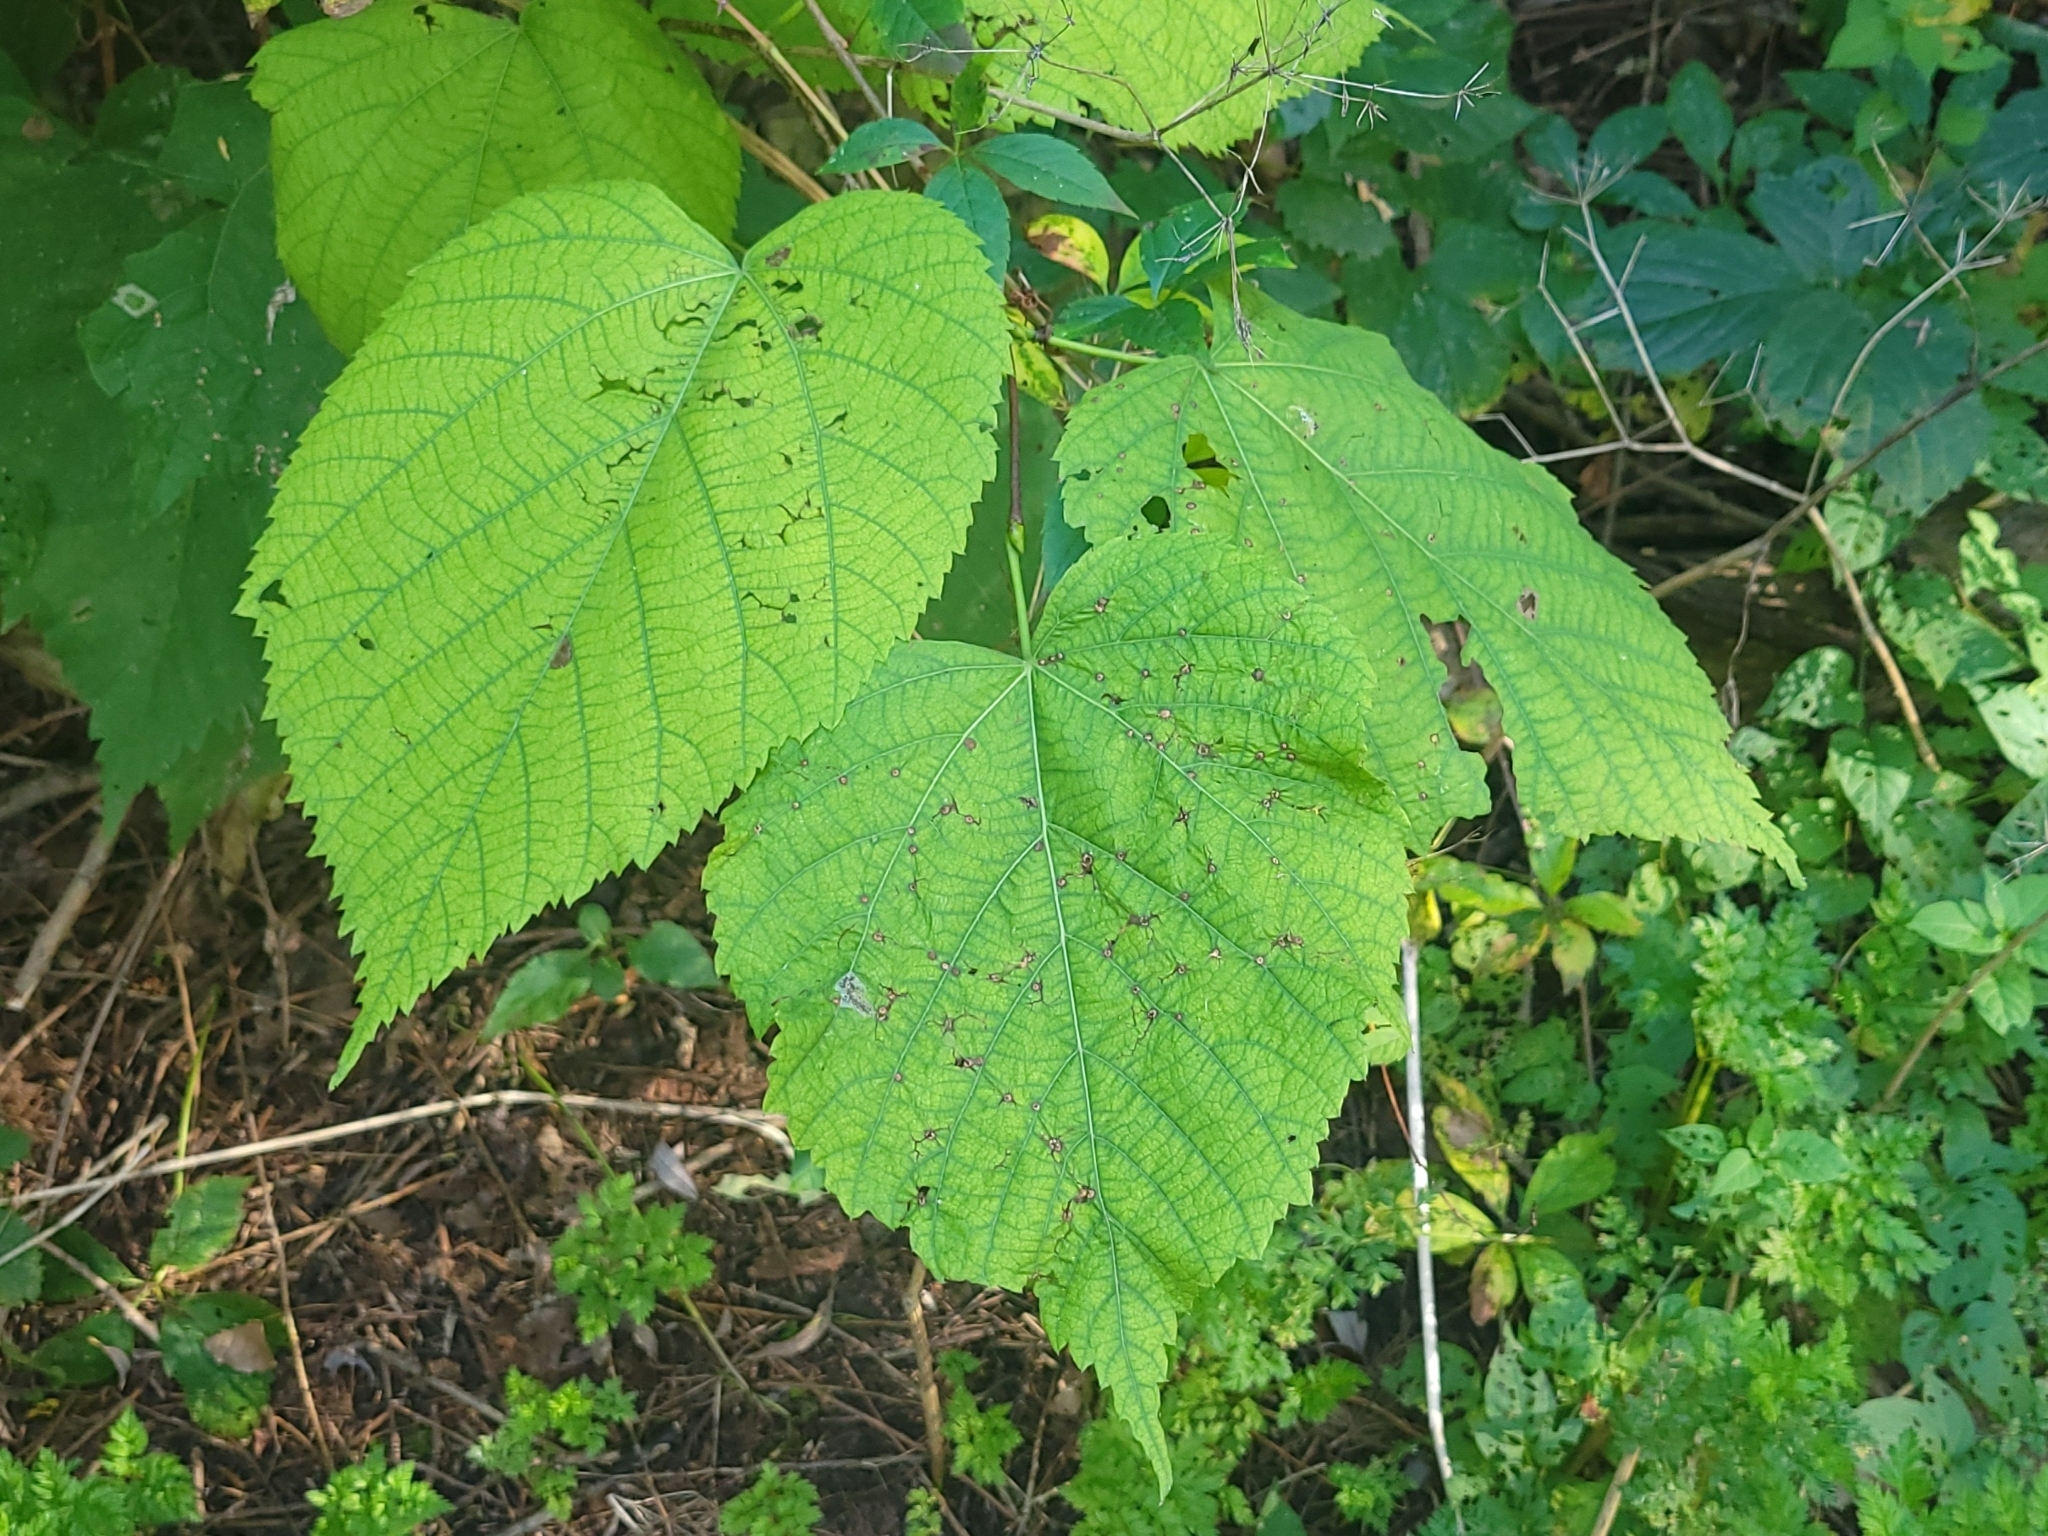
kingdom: Plantae
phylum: Tracheophyta
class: Magnoliopsida
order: Malvales
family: Malvaceae
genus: Tilia
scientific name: Tilia americana
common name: Basswood
